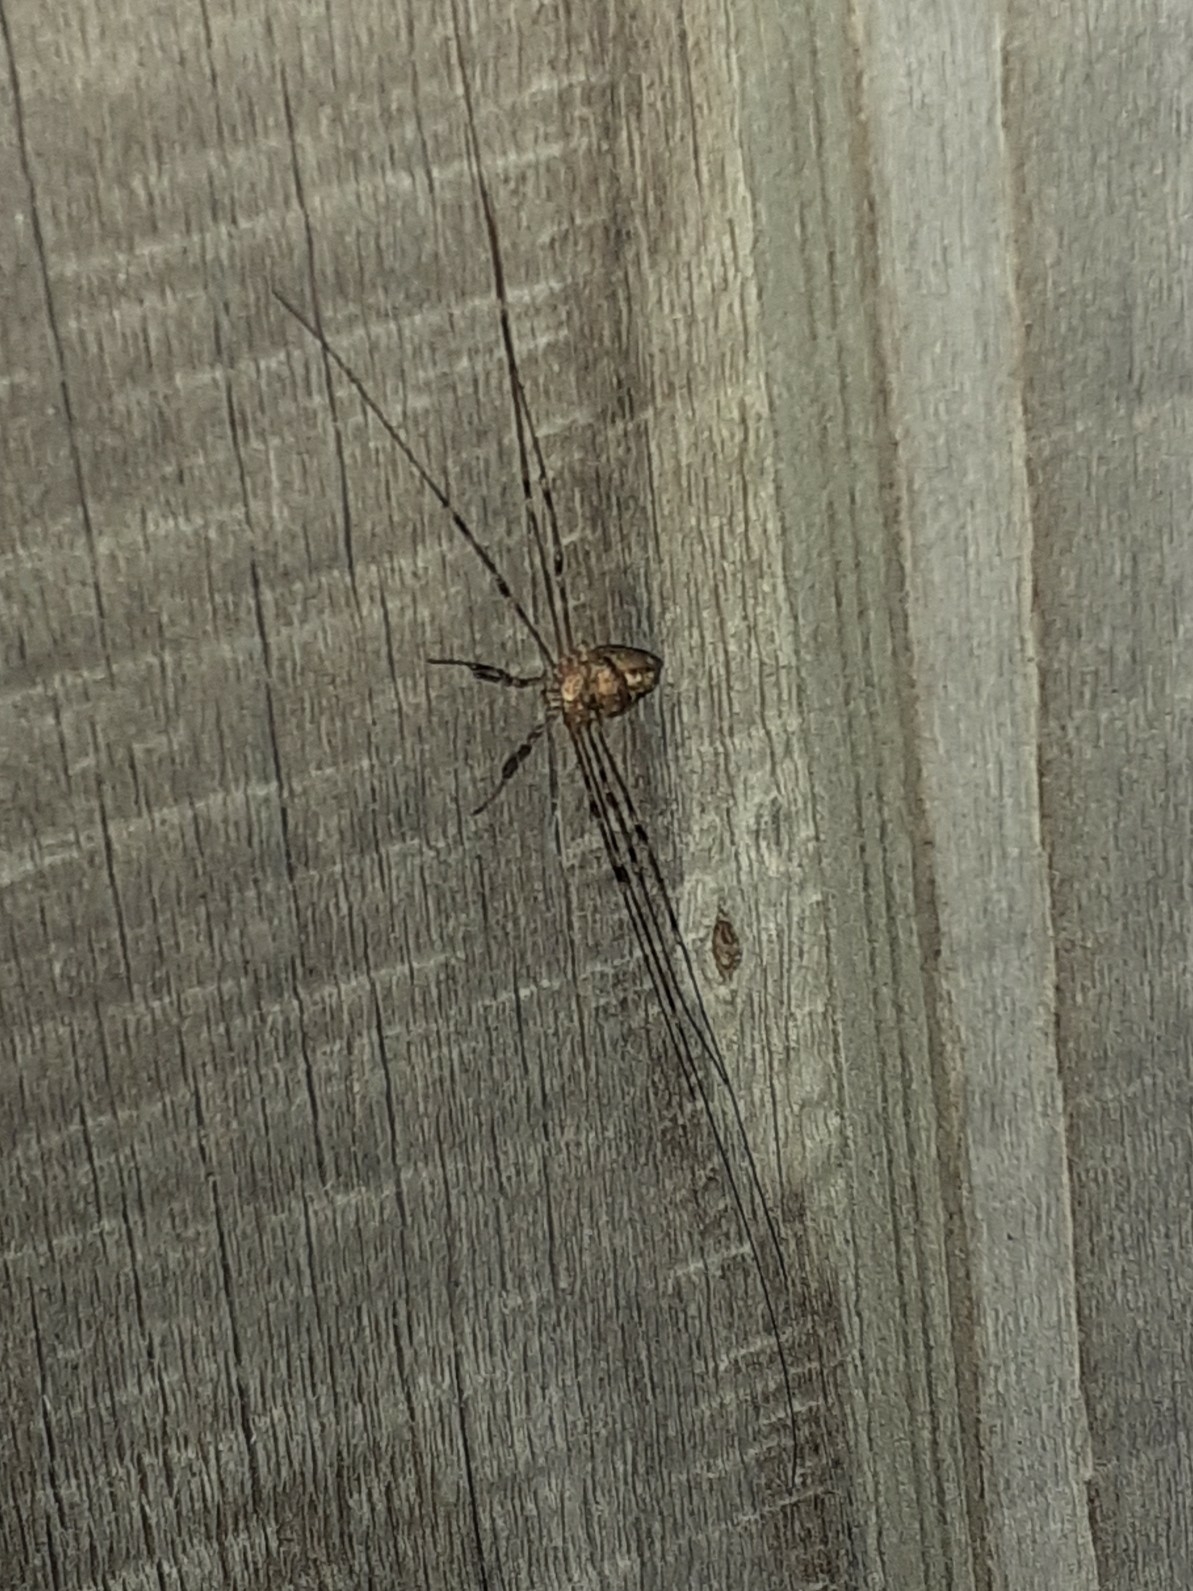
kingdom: Animalia
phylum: Arthropoda
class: Arachnida
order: Opiliones
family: Phalangiidae
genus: Dicranopalpus
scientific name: Dicranopalpus ramosus
